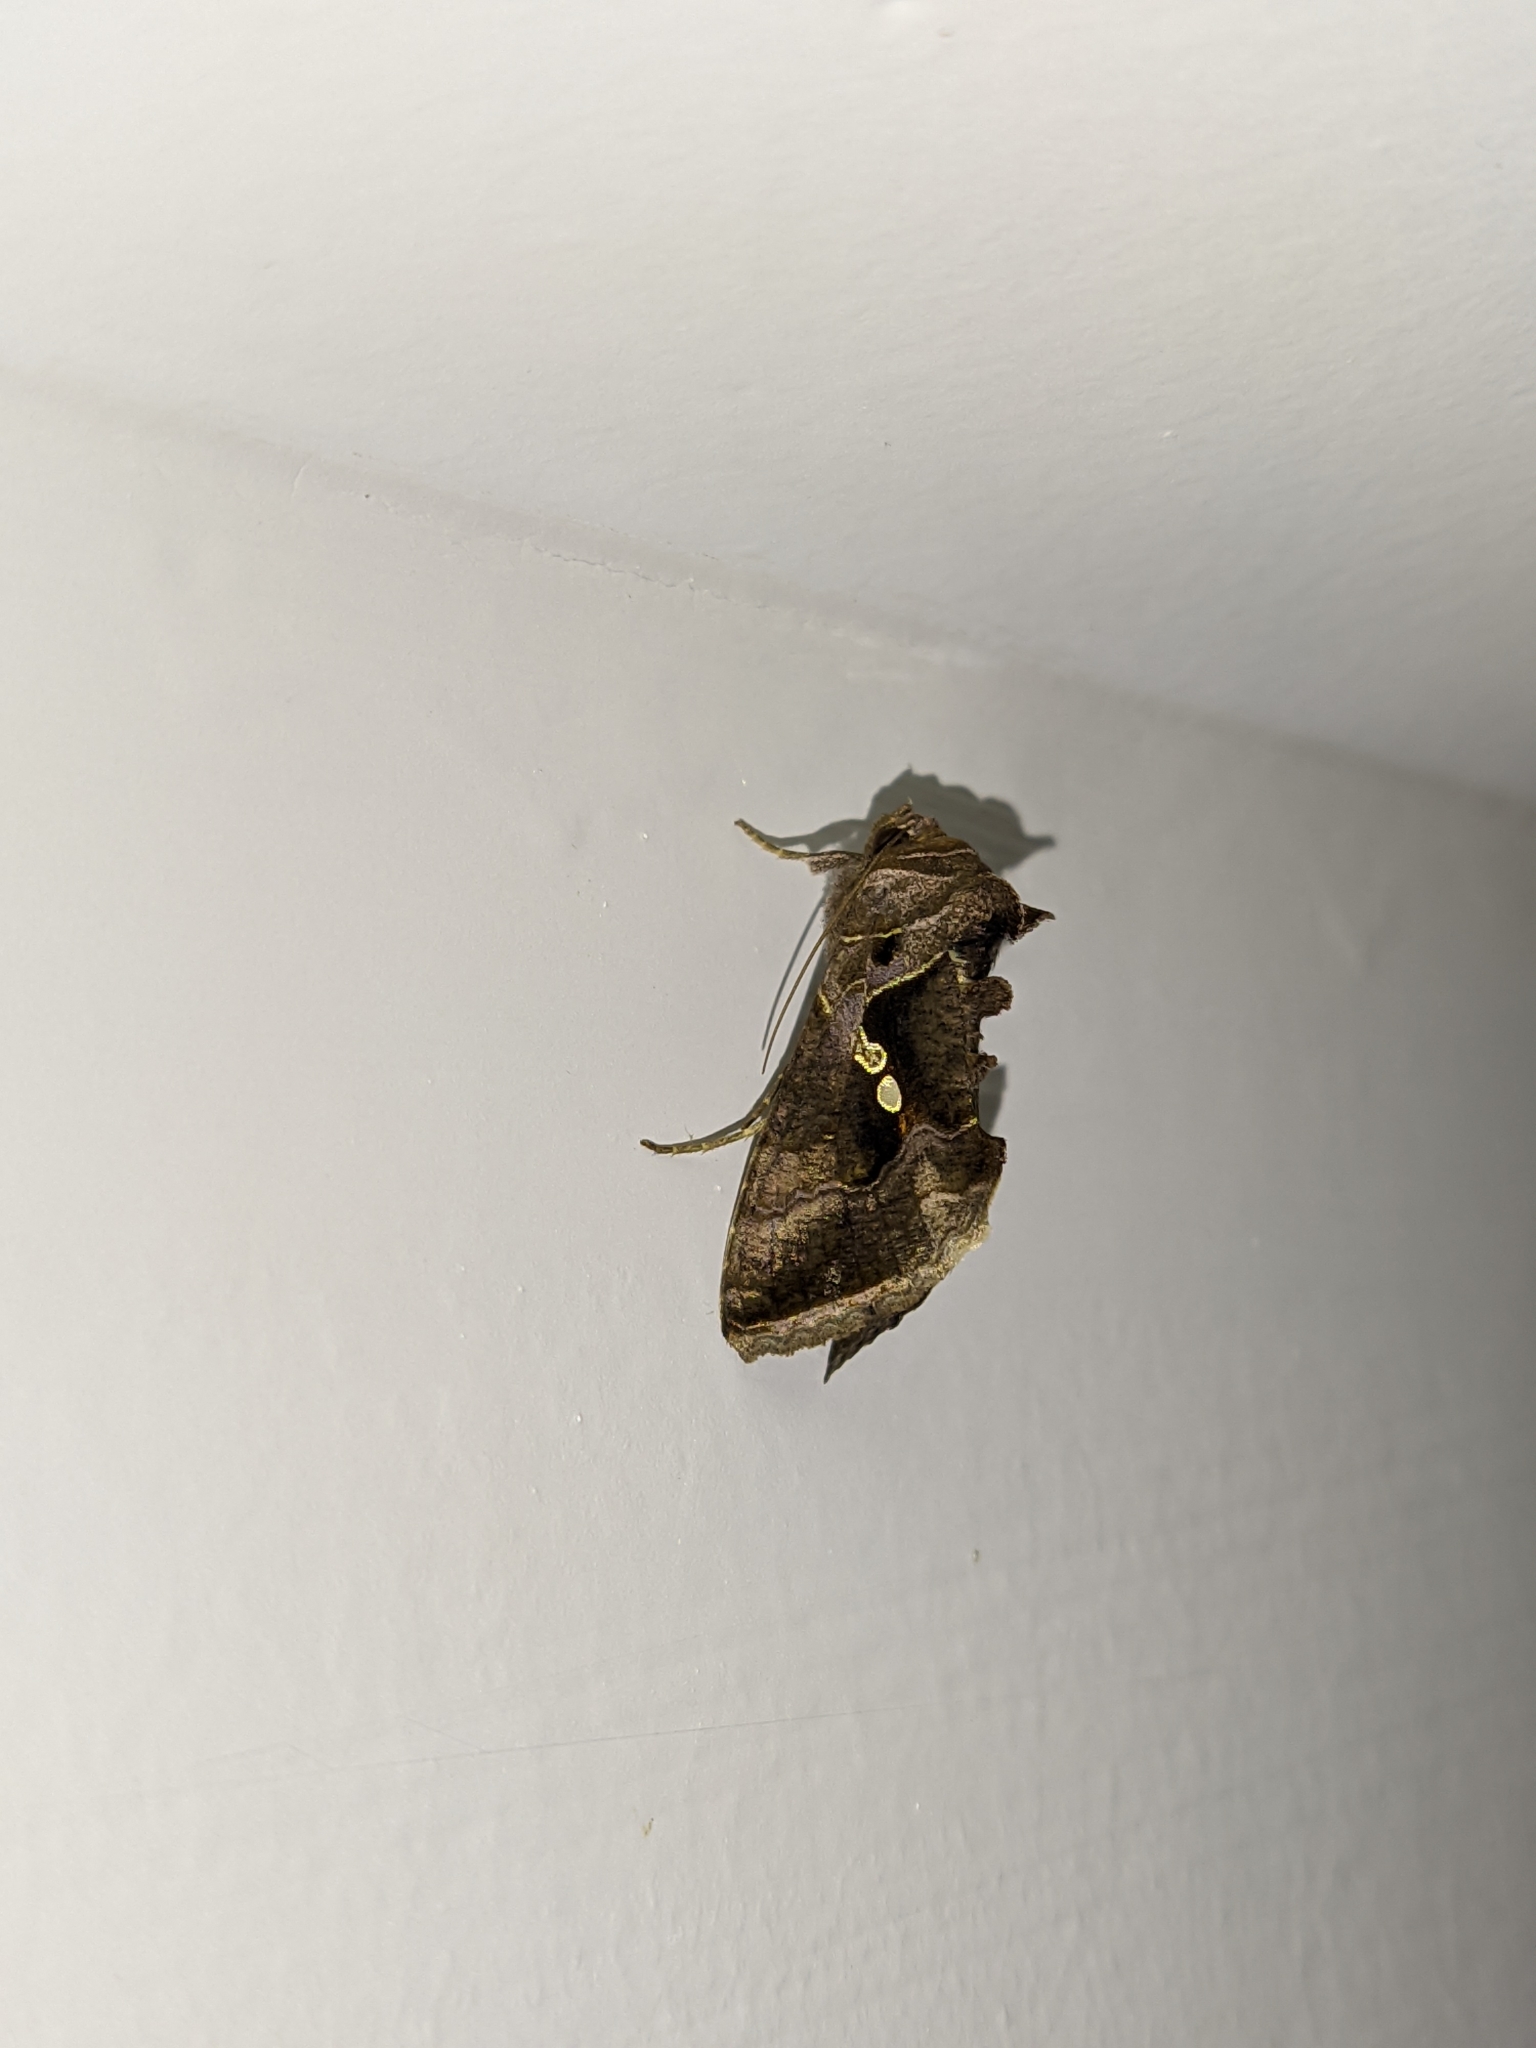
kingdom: Animalia
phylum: Arthropoda
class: Insecta
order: Lepidoptera
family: Noctuidae
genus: Chrysodeixis
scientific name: Chrysodeixis eriosoma
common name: Green garden looper
